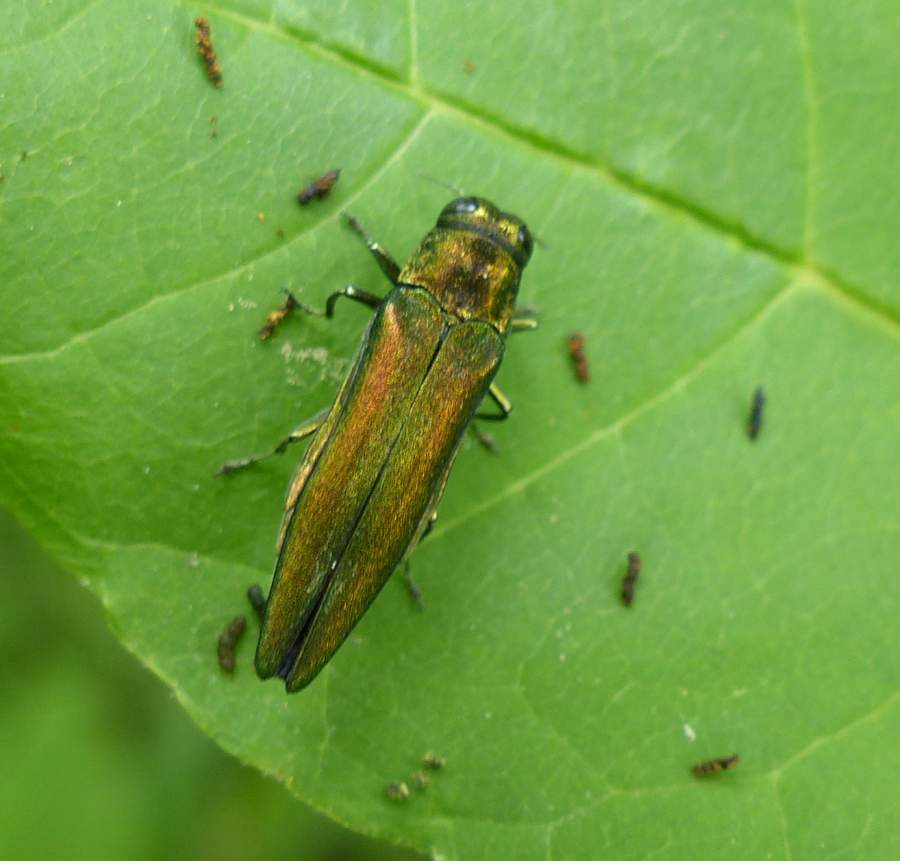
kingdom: Animalia
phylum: Arthropoda
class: Insecta
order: Coleoptera
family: Buprestidae
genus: Agrilus
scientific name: Agrilus planipennis
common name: Emerald ash borer
